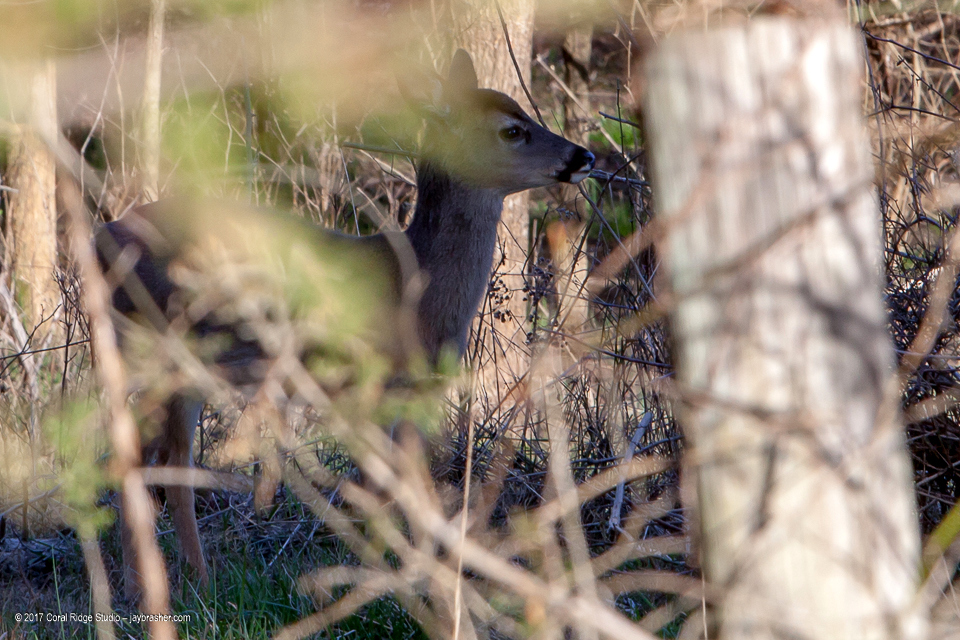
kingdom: Animalia
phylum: Chordata
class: Mammalia
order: Artiodactyla
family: Cervidae
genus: Odocoileus
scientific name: Odocoileus virginianus
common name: White-tailed deer
